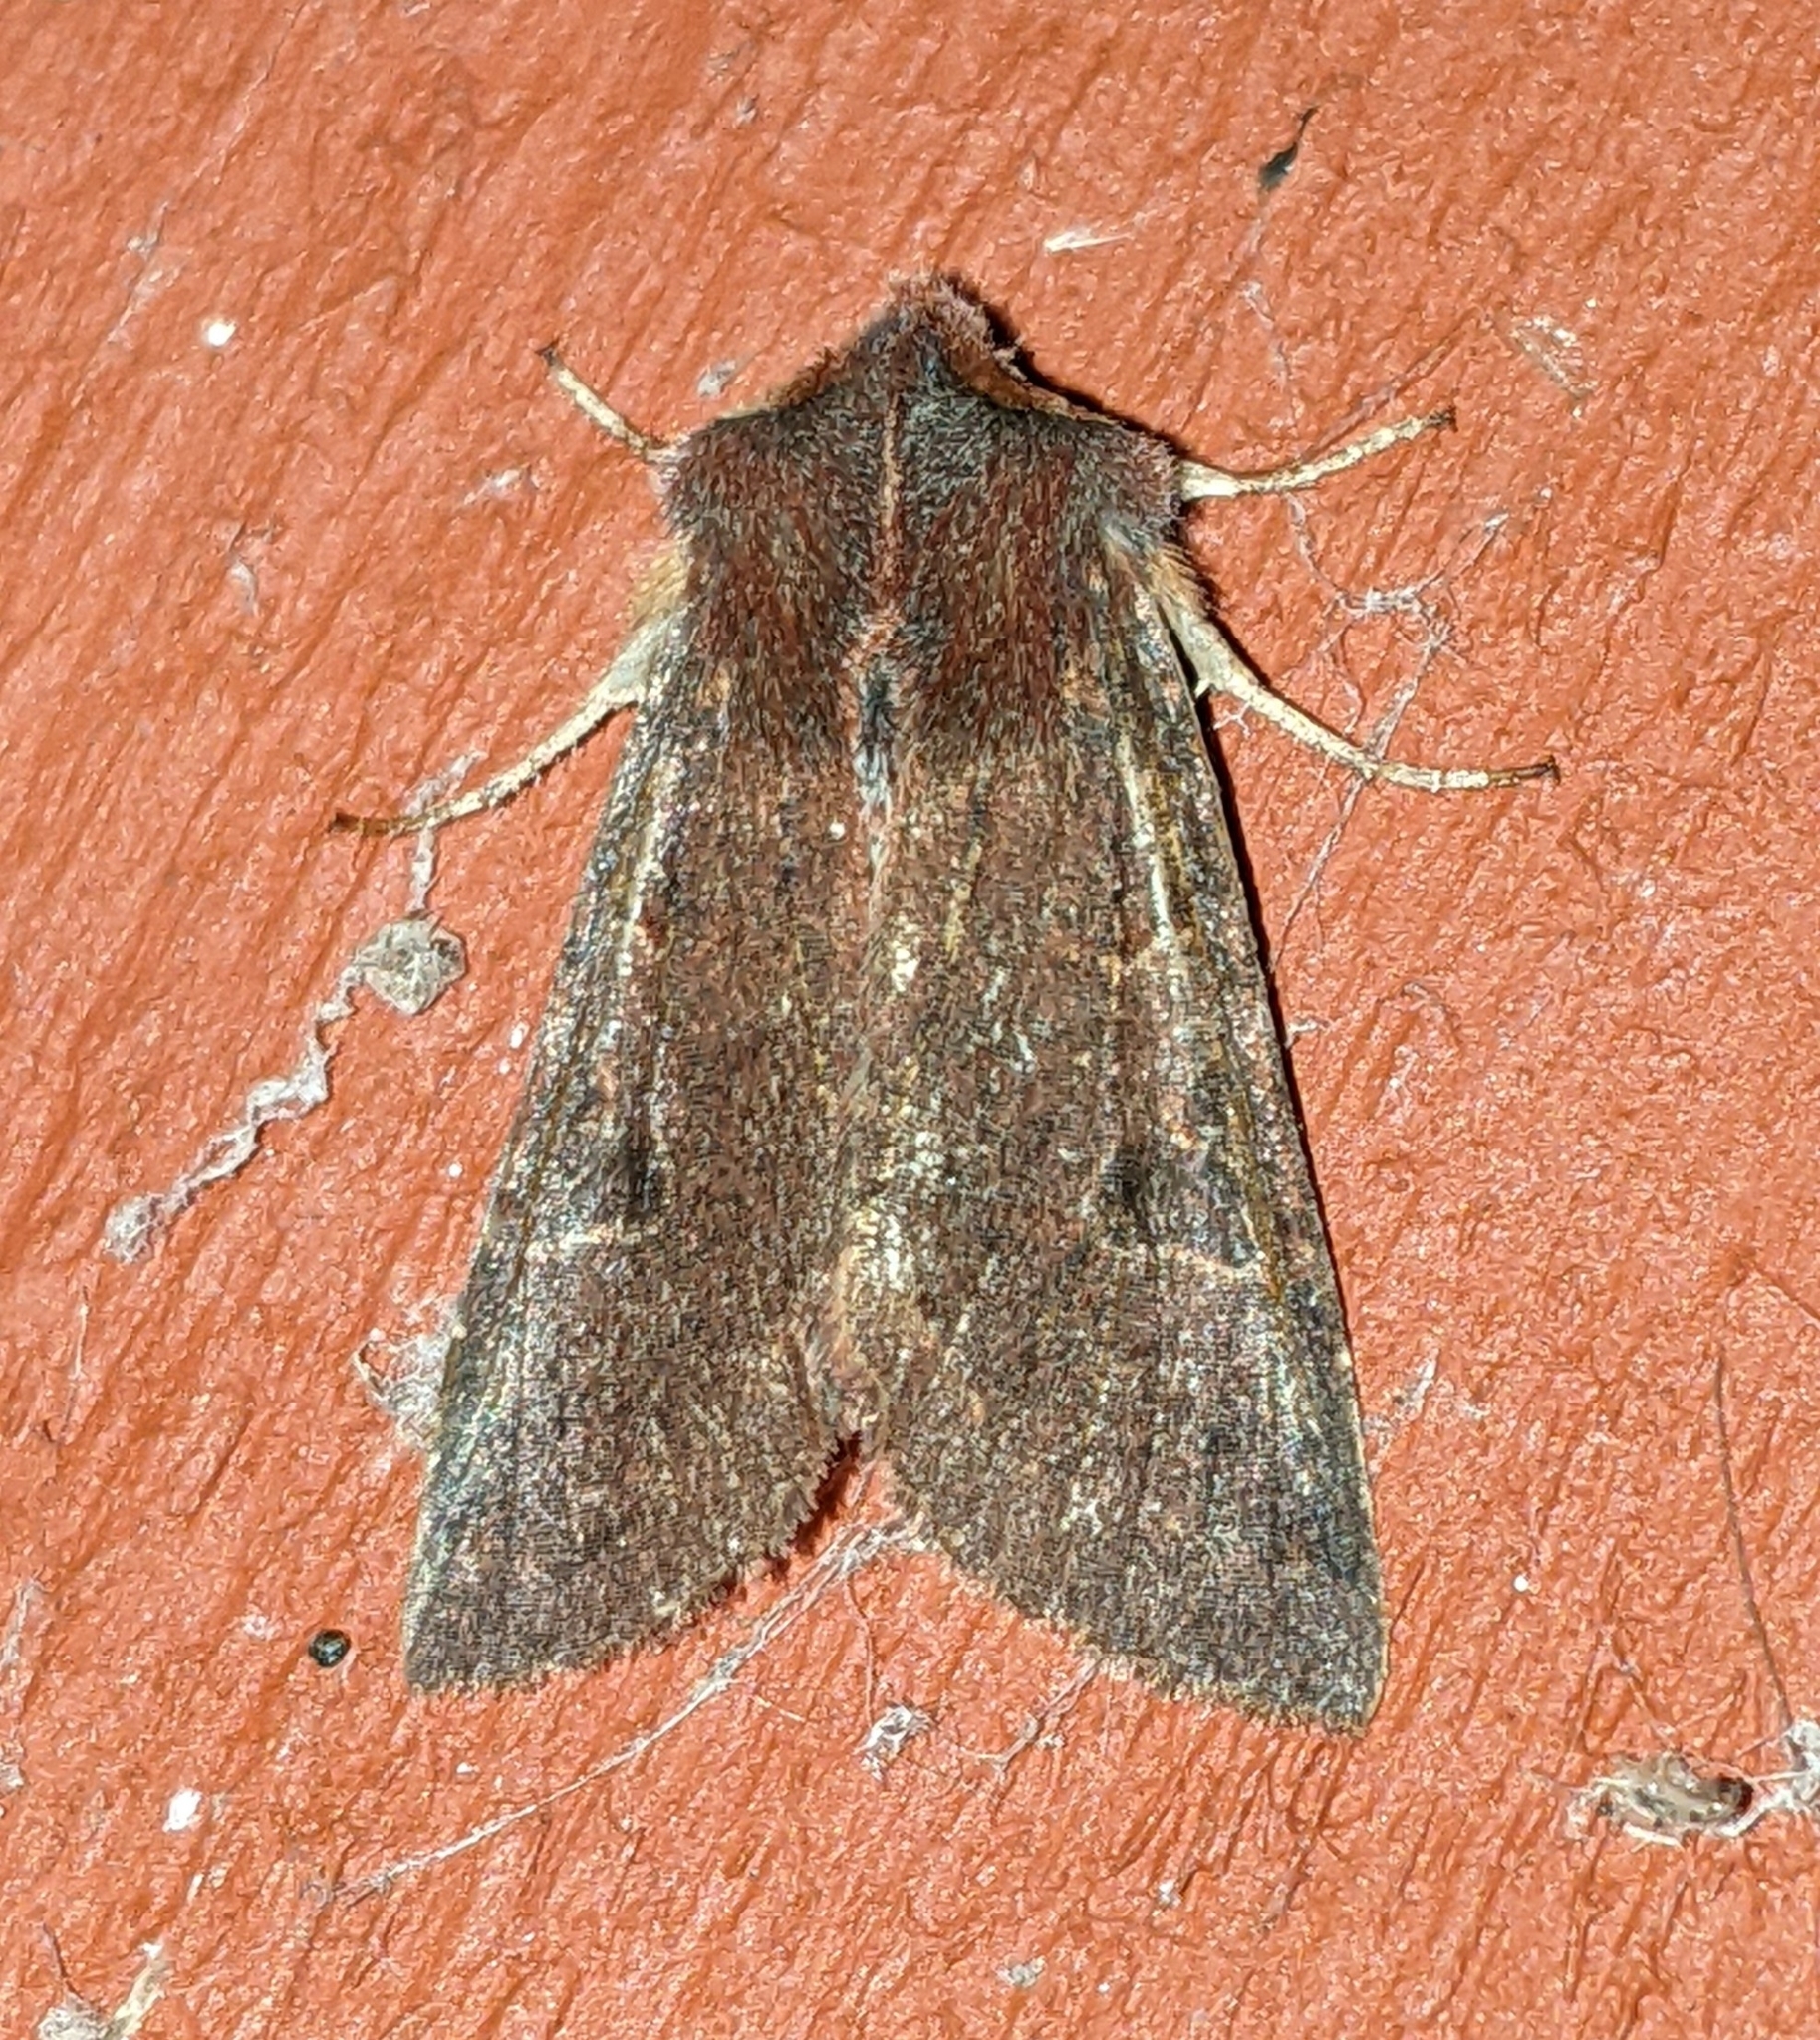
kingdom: Animalia
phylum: Arthropoda
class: Insecta
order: Lepidoptera
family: Noctuidae
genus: Orthosia
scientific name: Orthosia praeses
